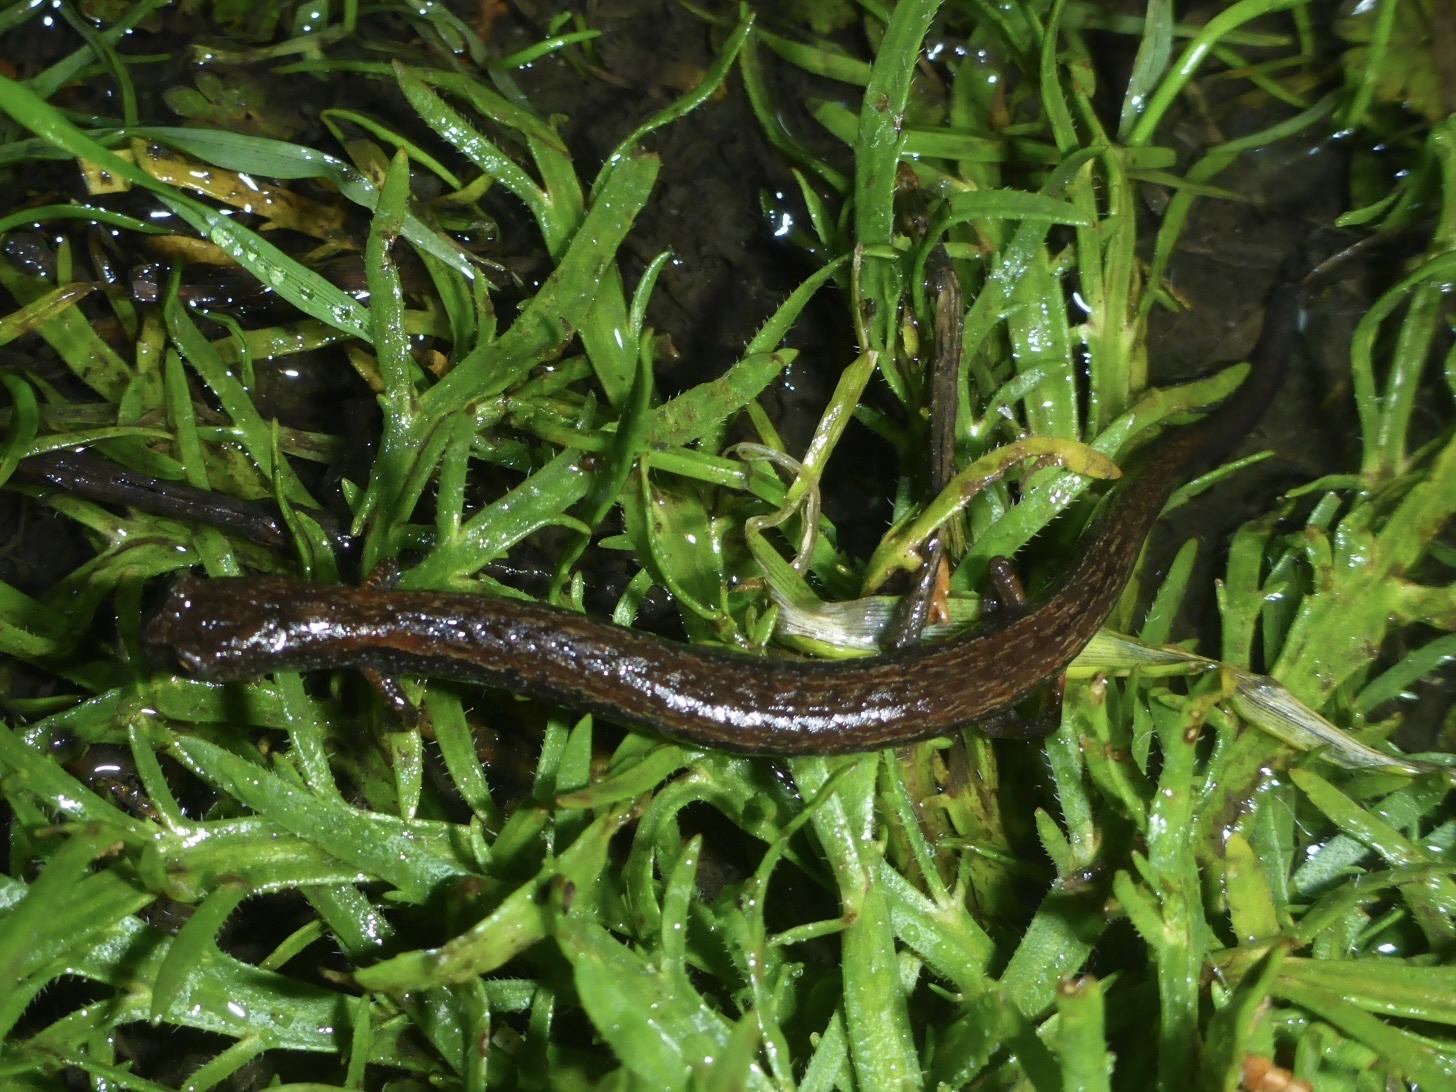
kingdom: Animalia
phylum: Chordata
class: Amphibia
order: Caudata
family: Plethodontidae
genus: Batrachoseps
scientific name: Batrachoseps attenuatus
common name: California slender salamander
